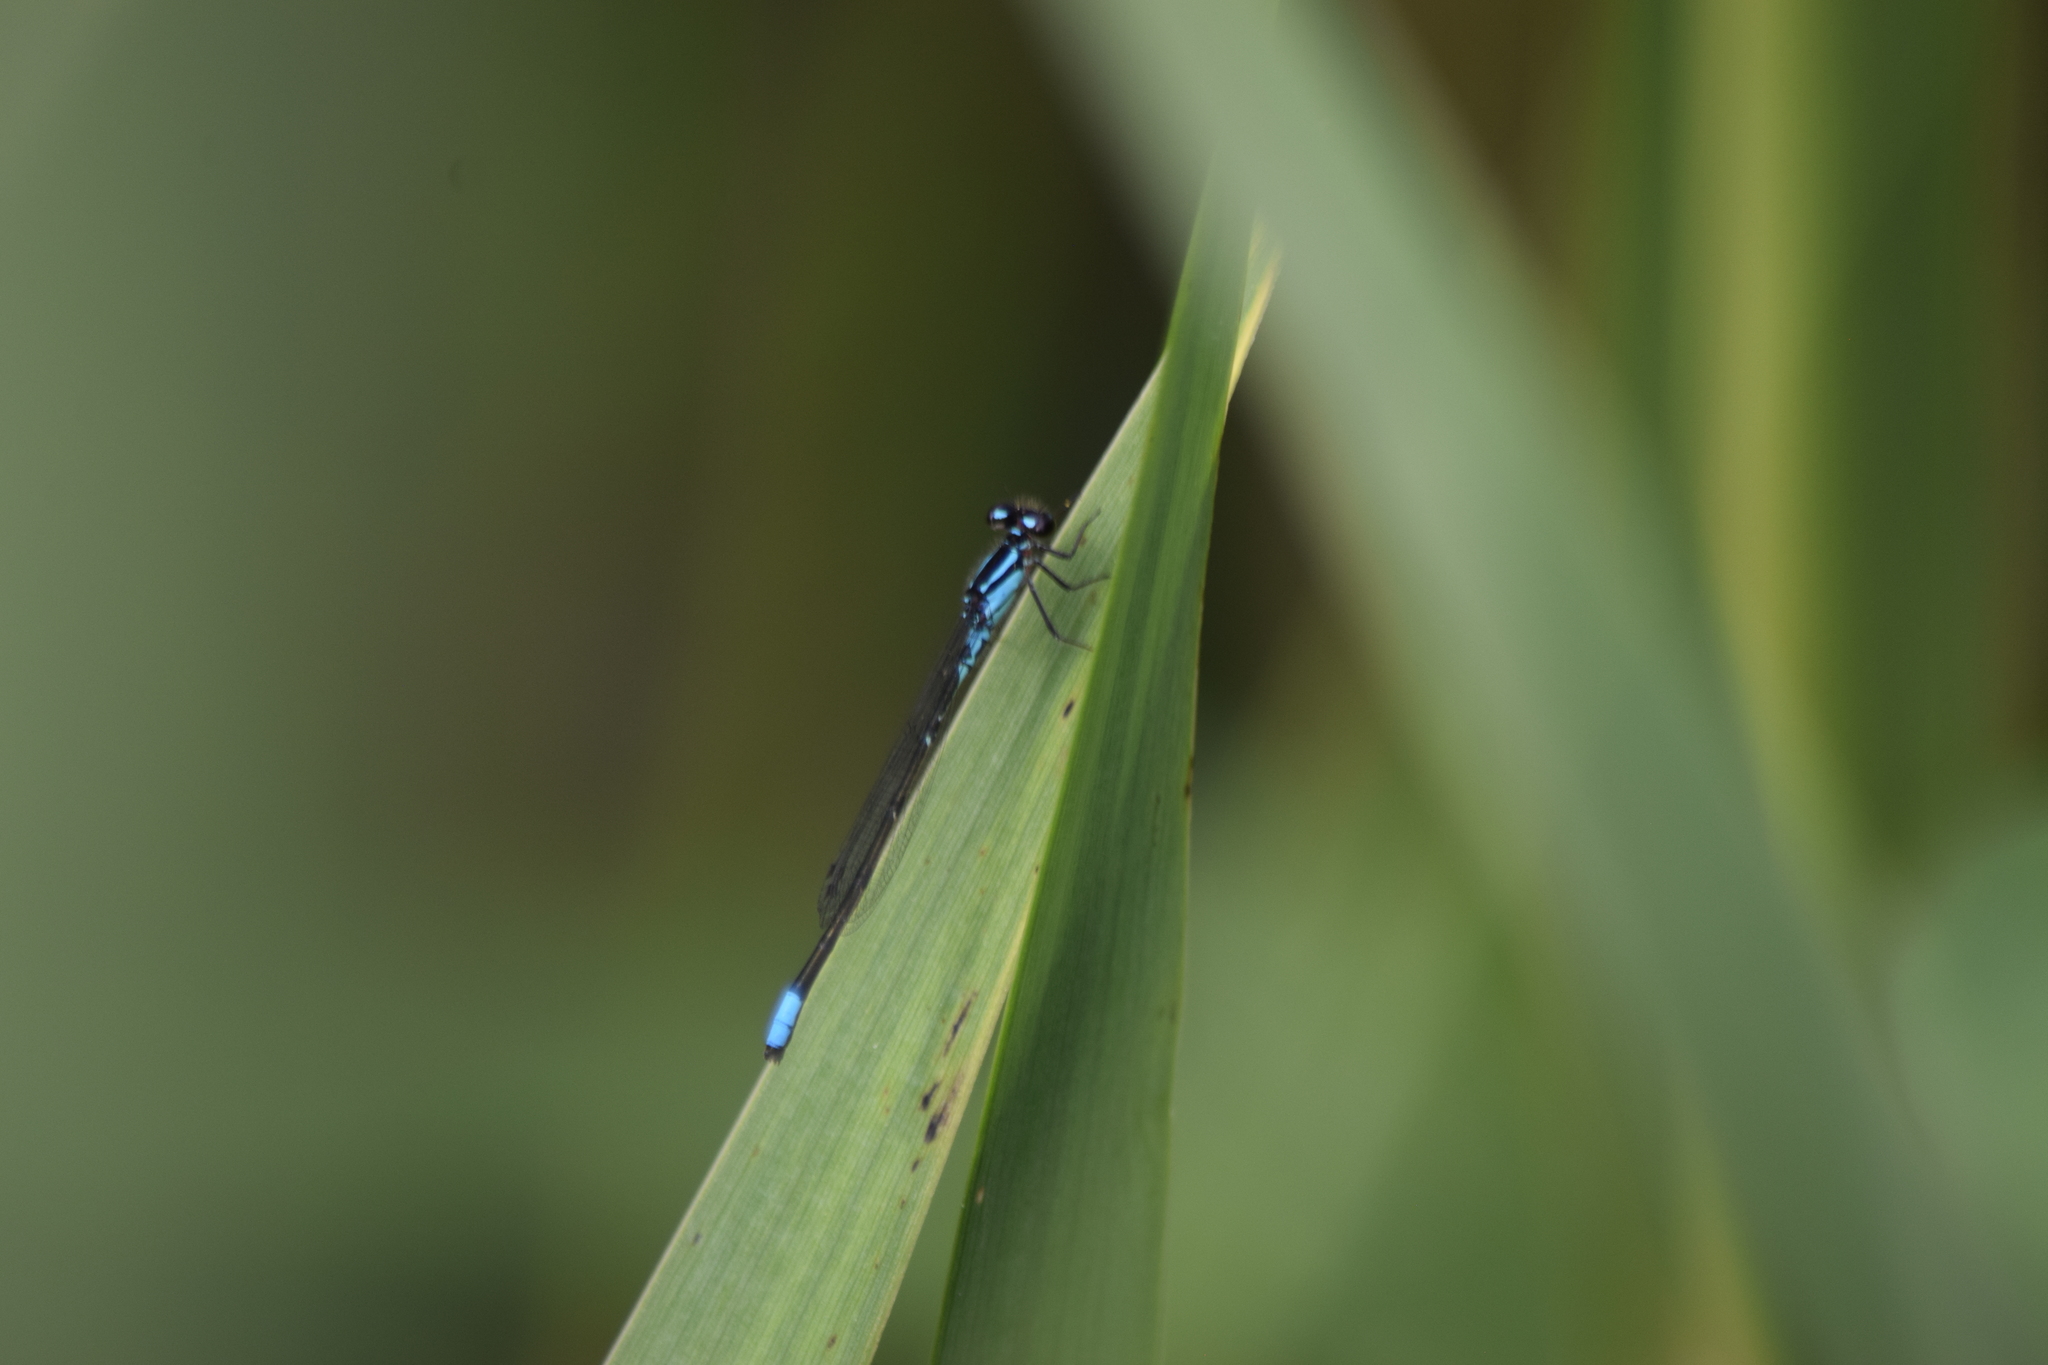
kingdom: Animalia
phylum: Arthropoda
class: Insecta
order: Odonata
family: Coenagrionidae
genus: Enallagma
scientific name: Enallagma geminatum
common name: Skimming bluet
